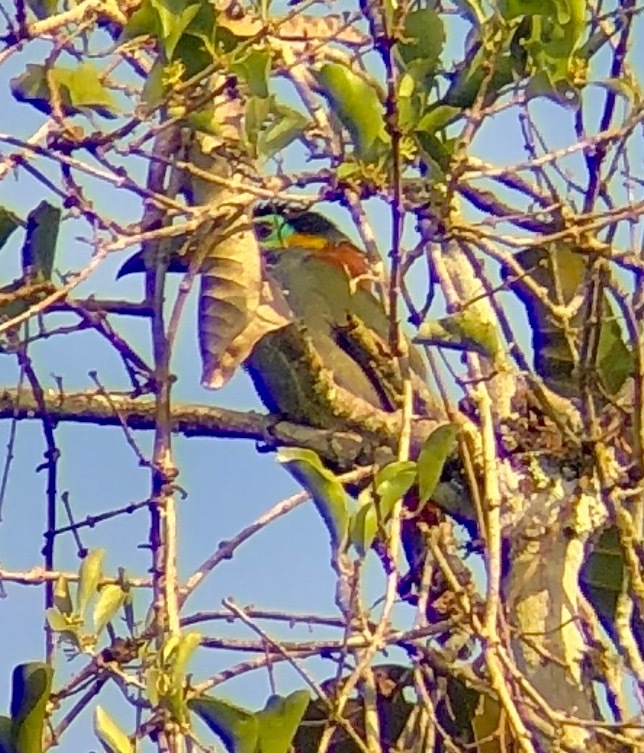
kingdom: Animalia
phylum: Chordata
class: Aves
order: Piciformes
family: Ramphastidae
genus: Selenidera
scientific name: Selenidera piperivora
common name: Guianan toucanet
